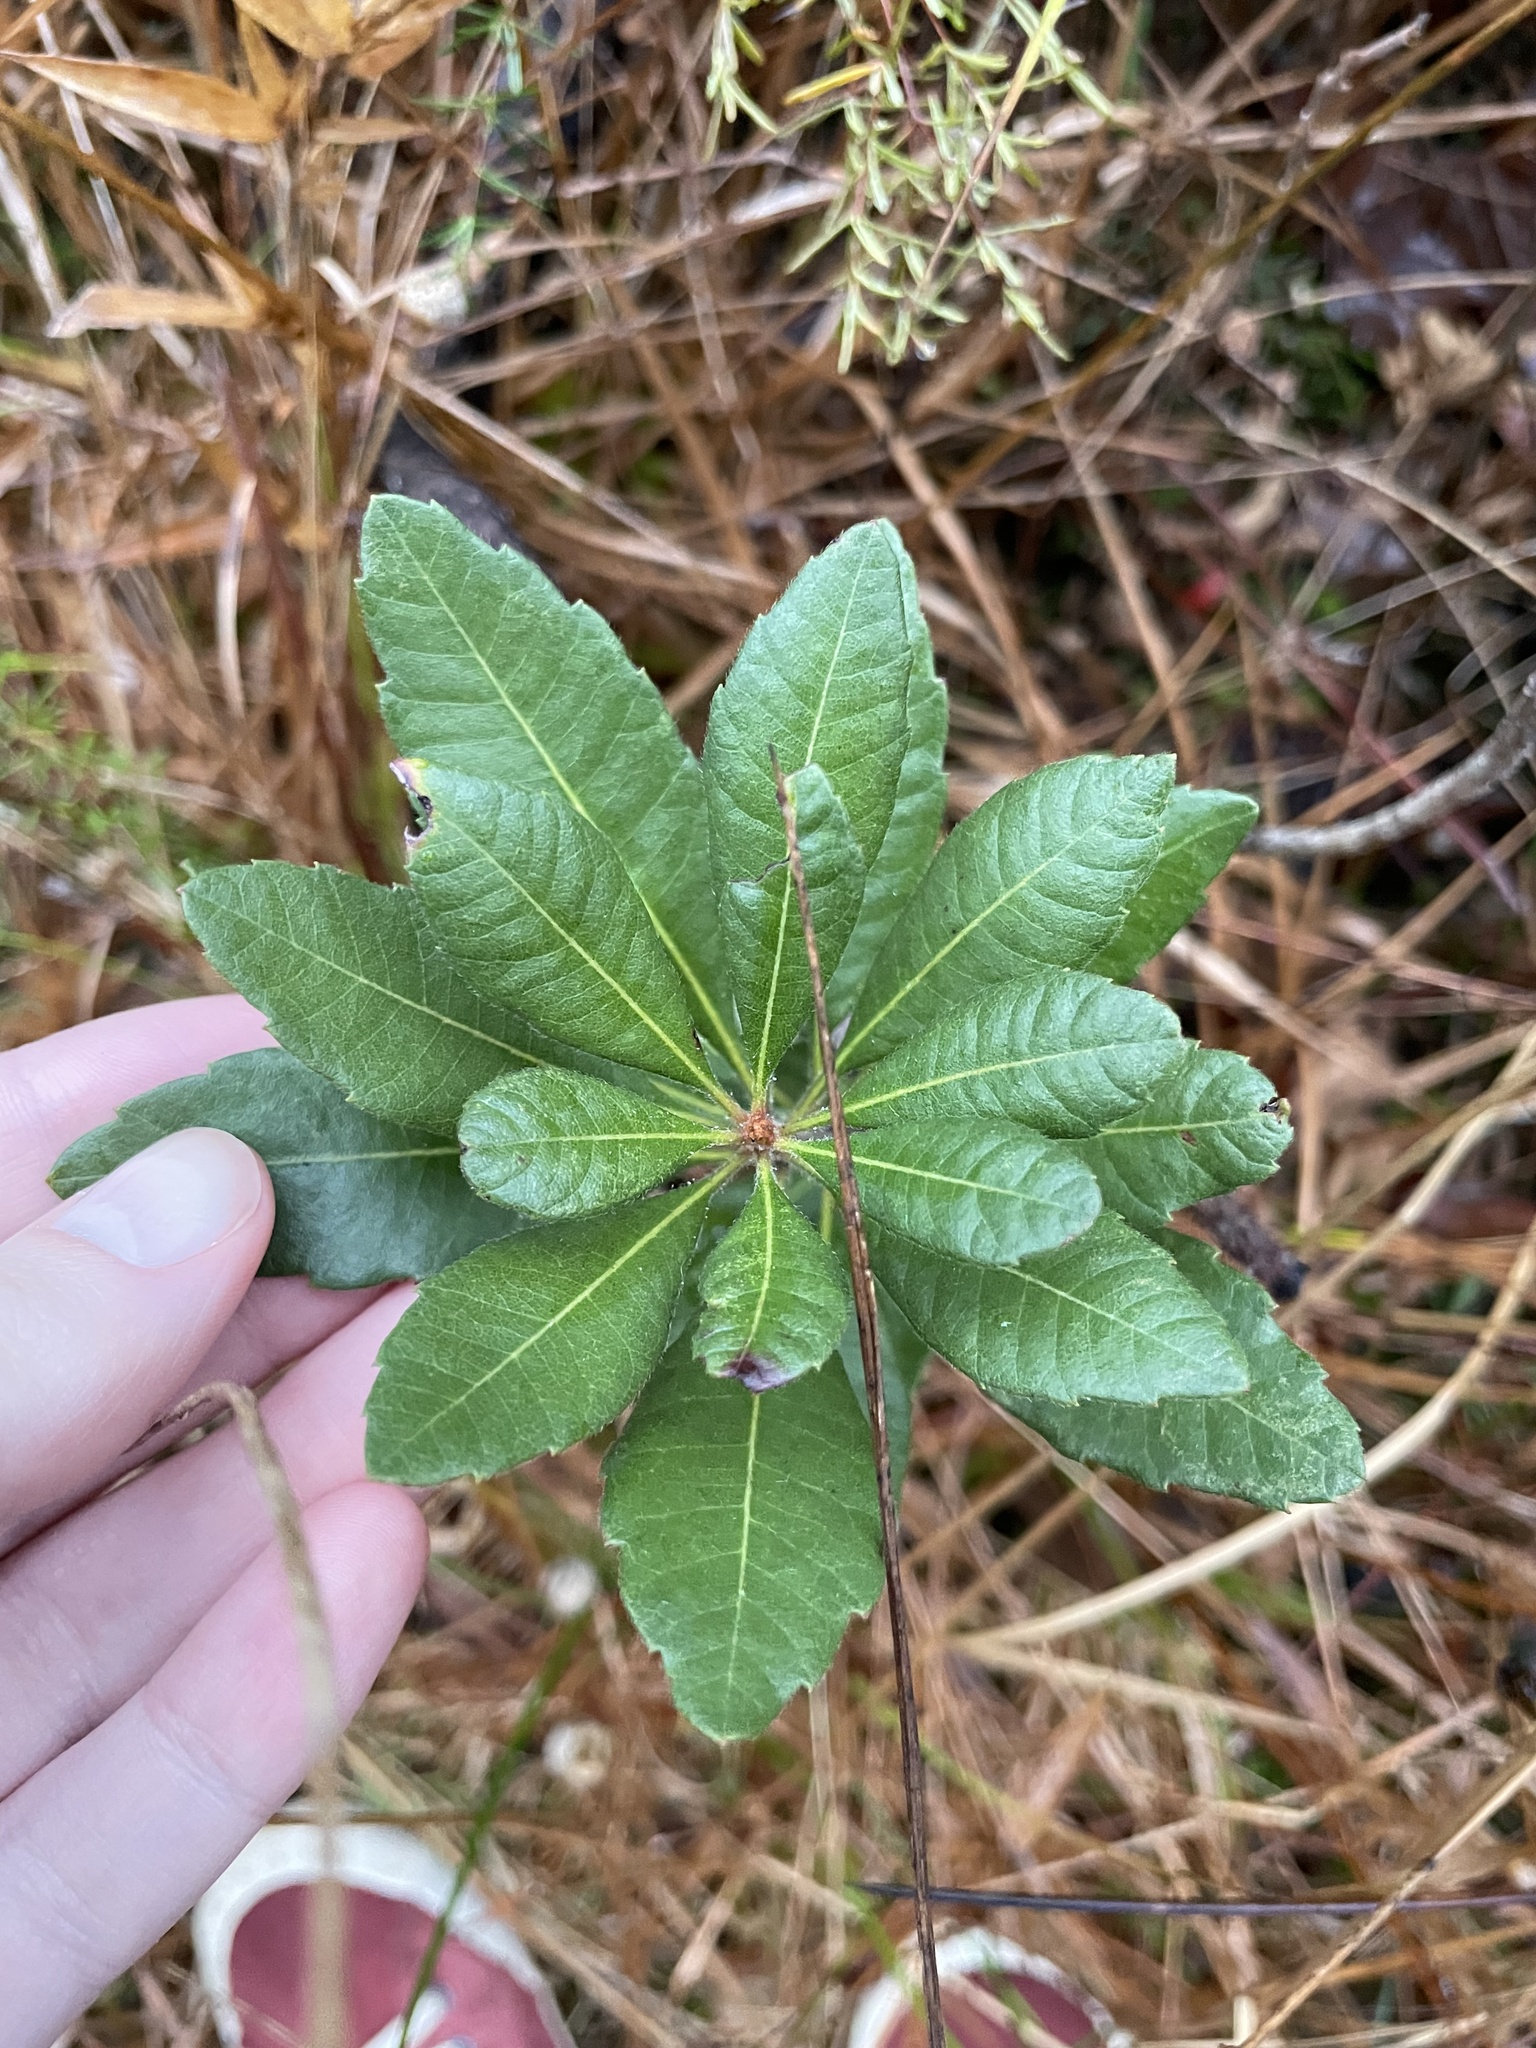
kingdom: Plantae
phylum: Tracheophyta
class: Magnoliopsida
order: Fagales
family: Myricaceae
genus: Morella
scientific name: Morella caroliniensis
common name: Evergreen bayberry
